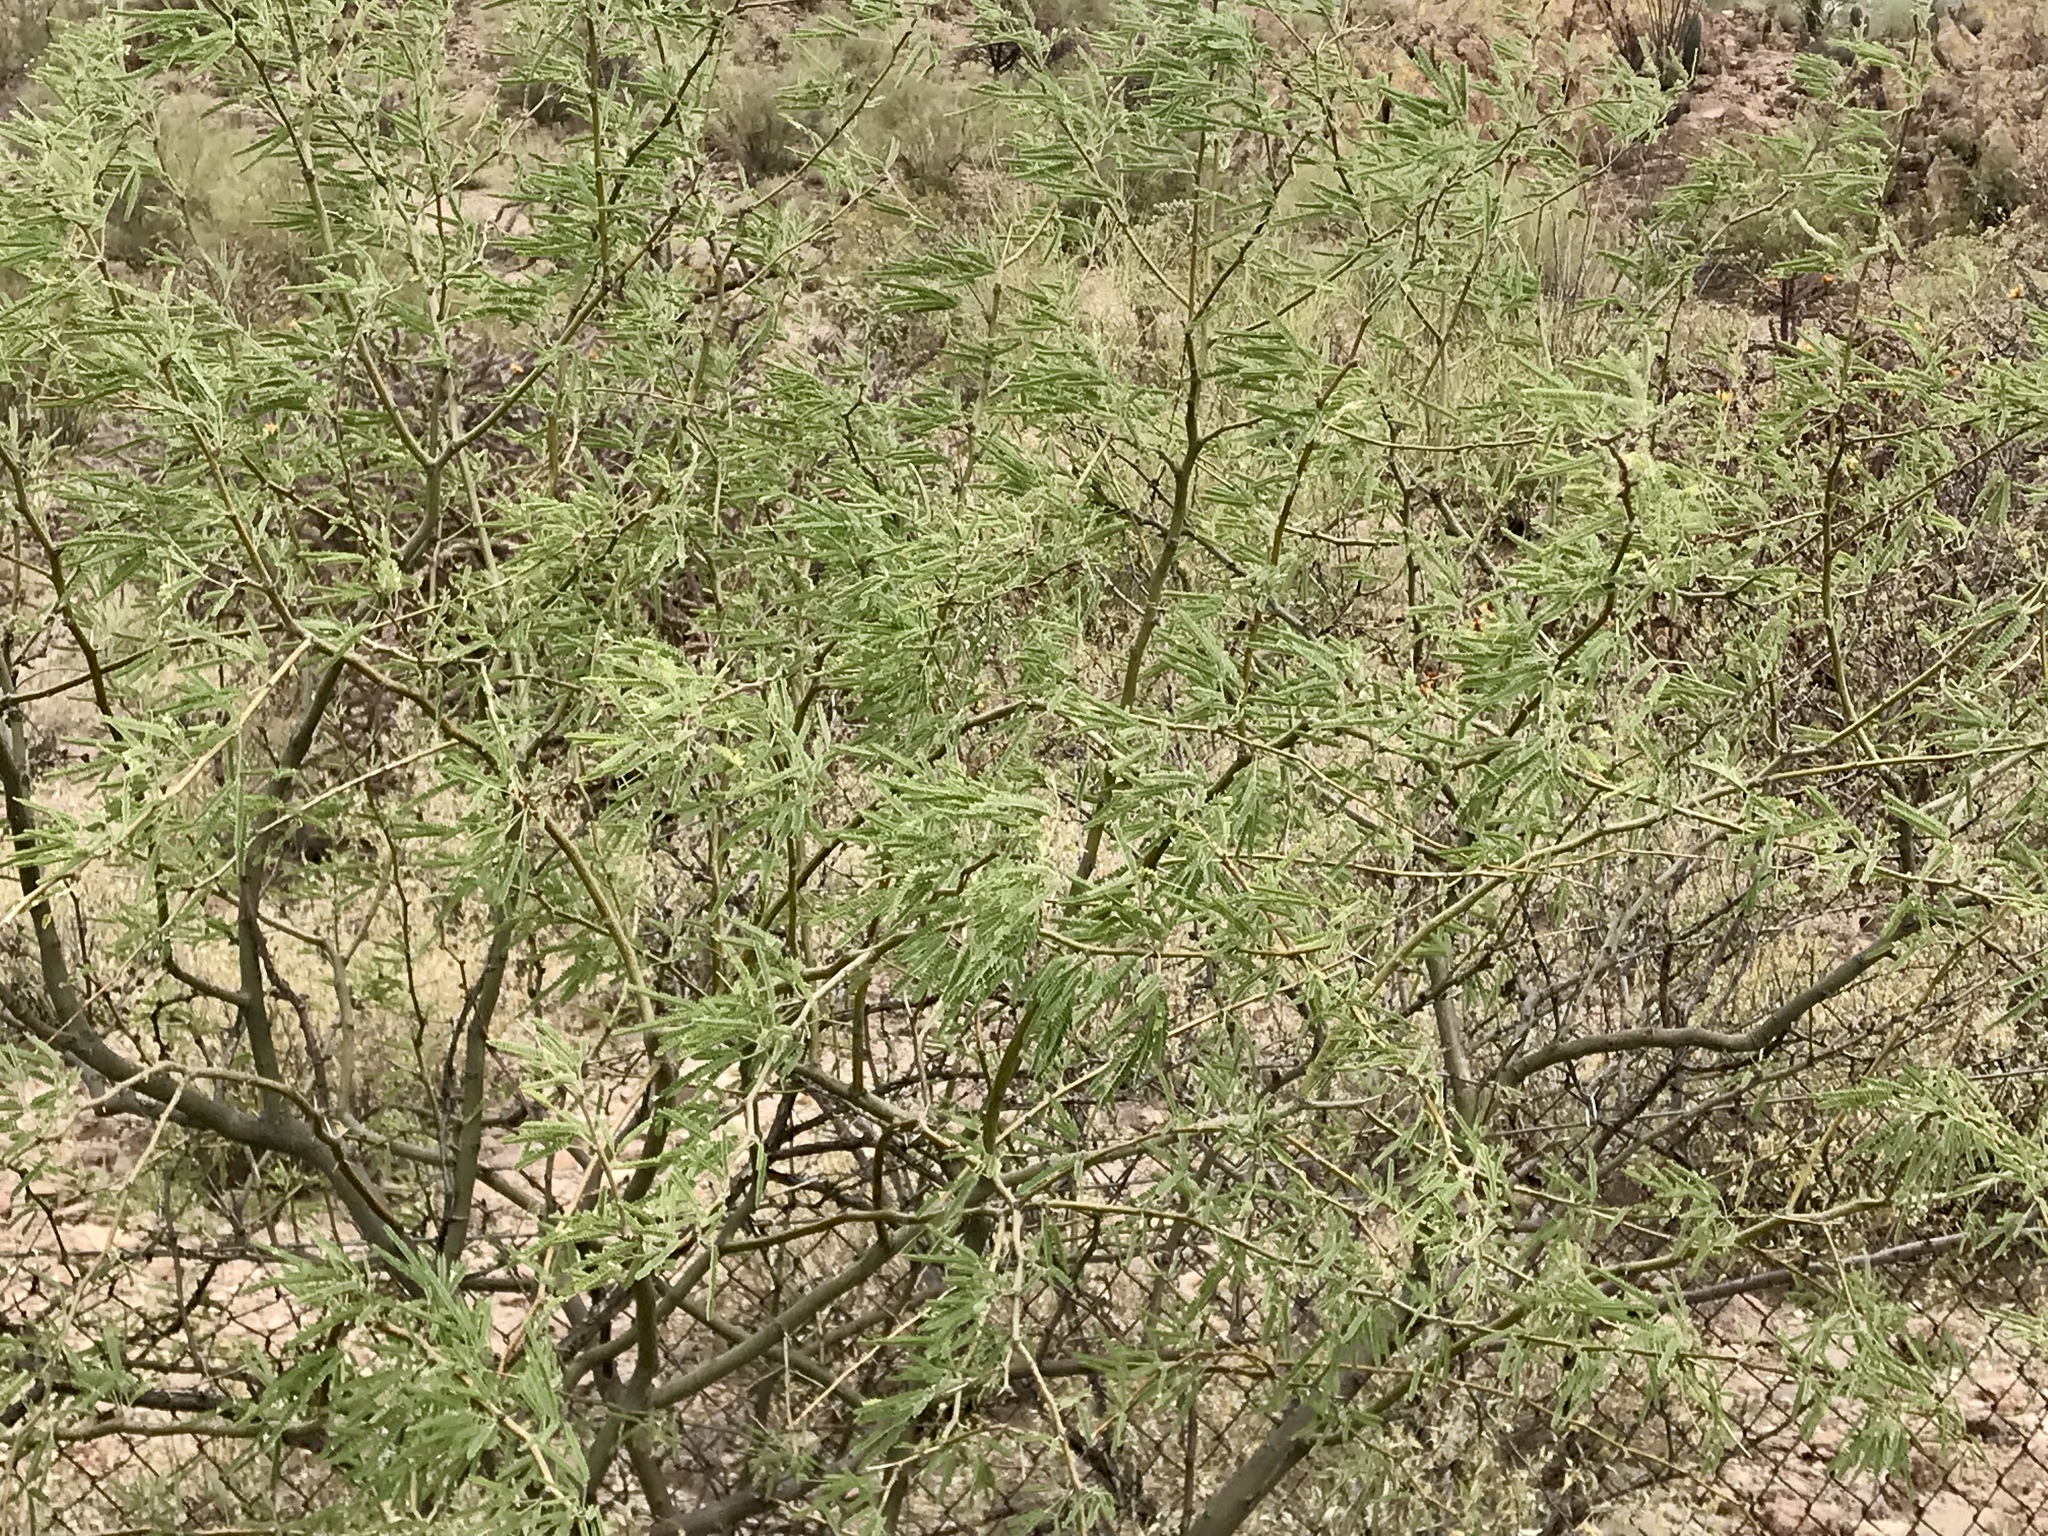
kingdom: Plantae
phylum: Tracheophyta
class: Magnoliopsida
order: Fabales
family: Fabaceae
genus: Prosopis
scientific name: Prosopis velutina
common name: Velvet mesquite
